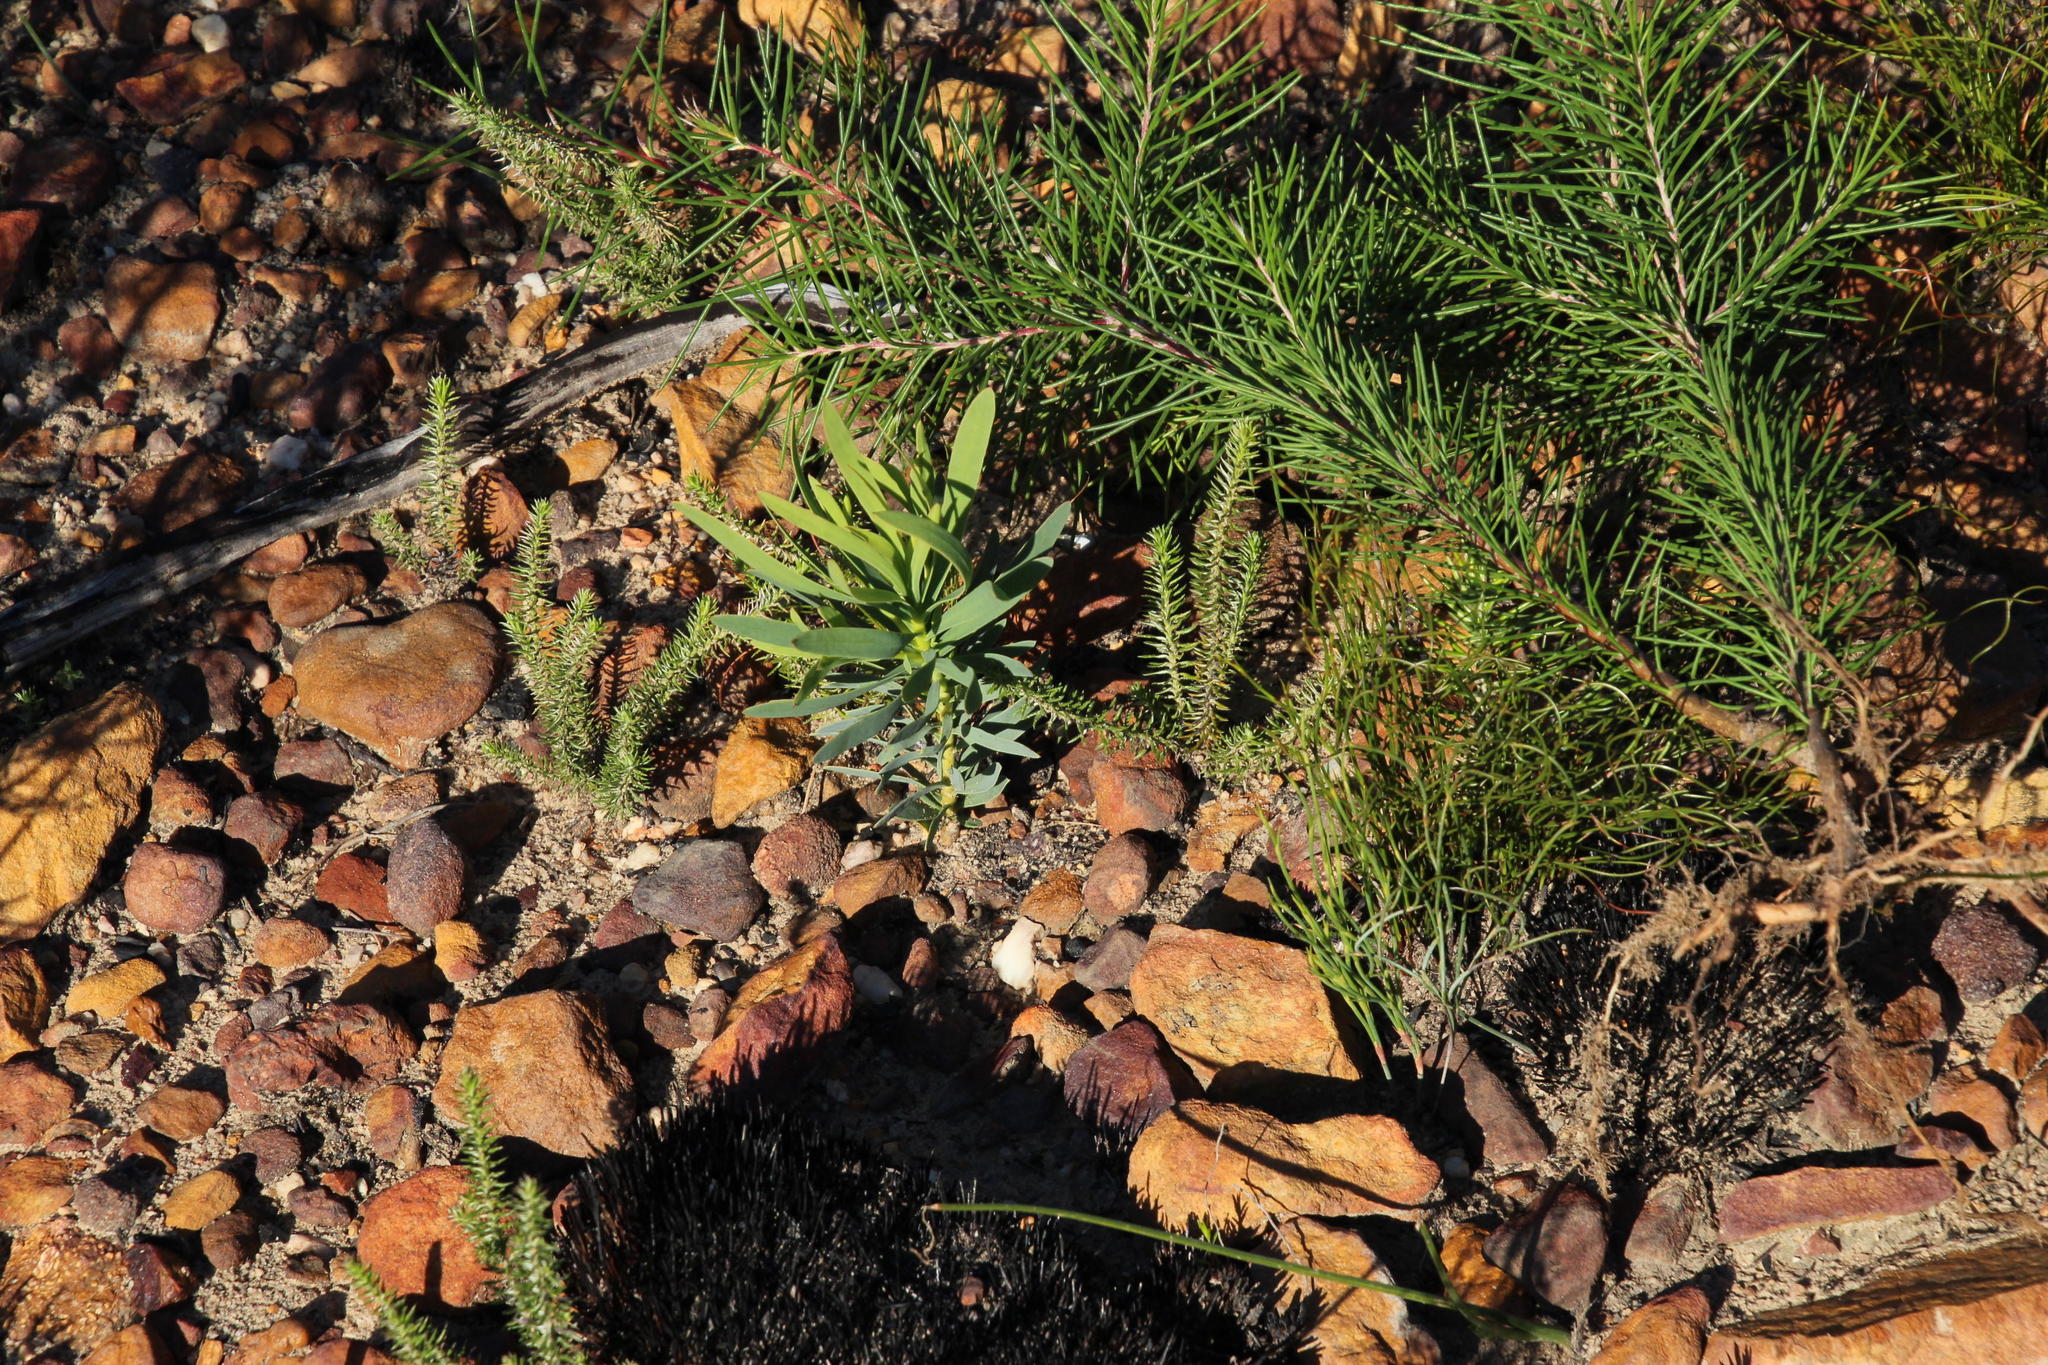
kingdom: Plantae
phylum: Tracheophyta
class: Magnoliopsida
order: Proteales
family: Proteaceae
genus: Protea
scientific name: Protea repens
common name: Sugarbush
